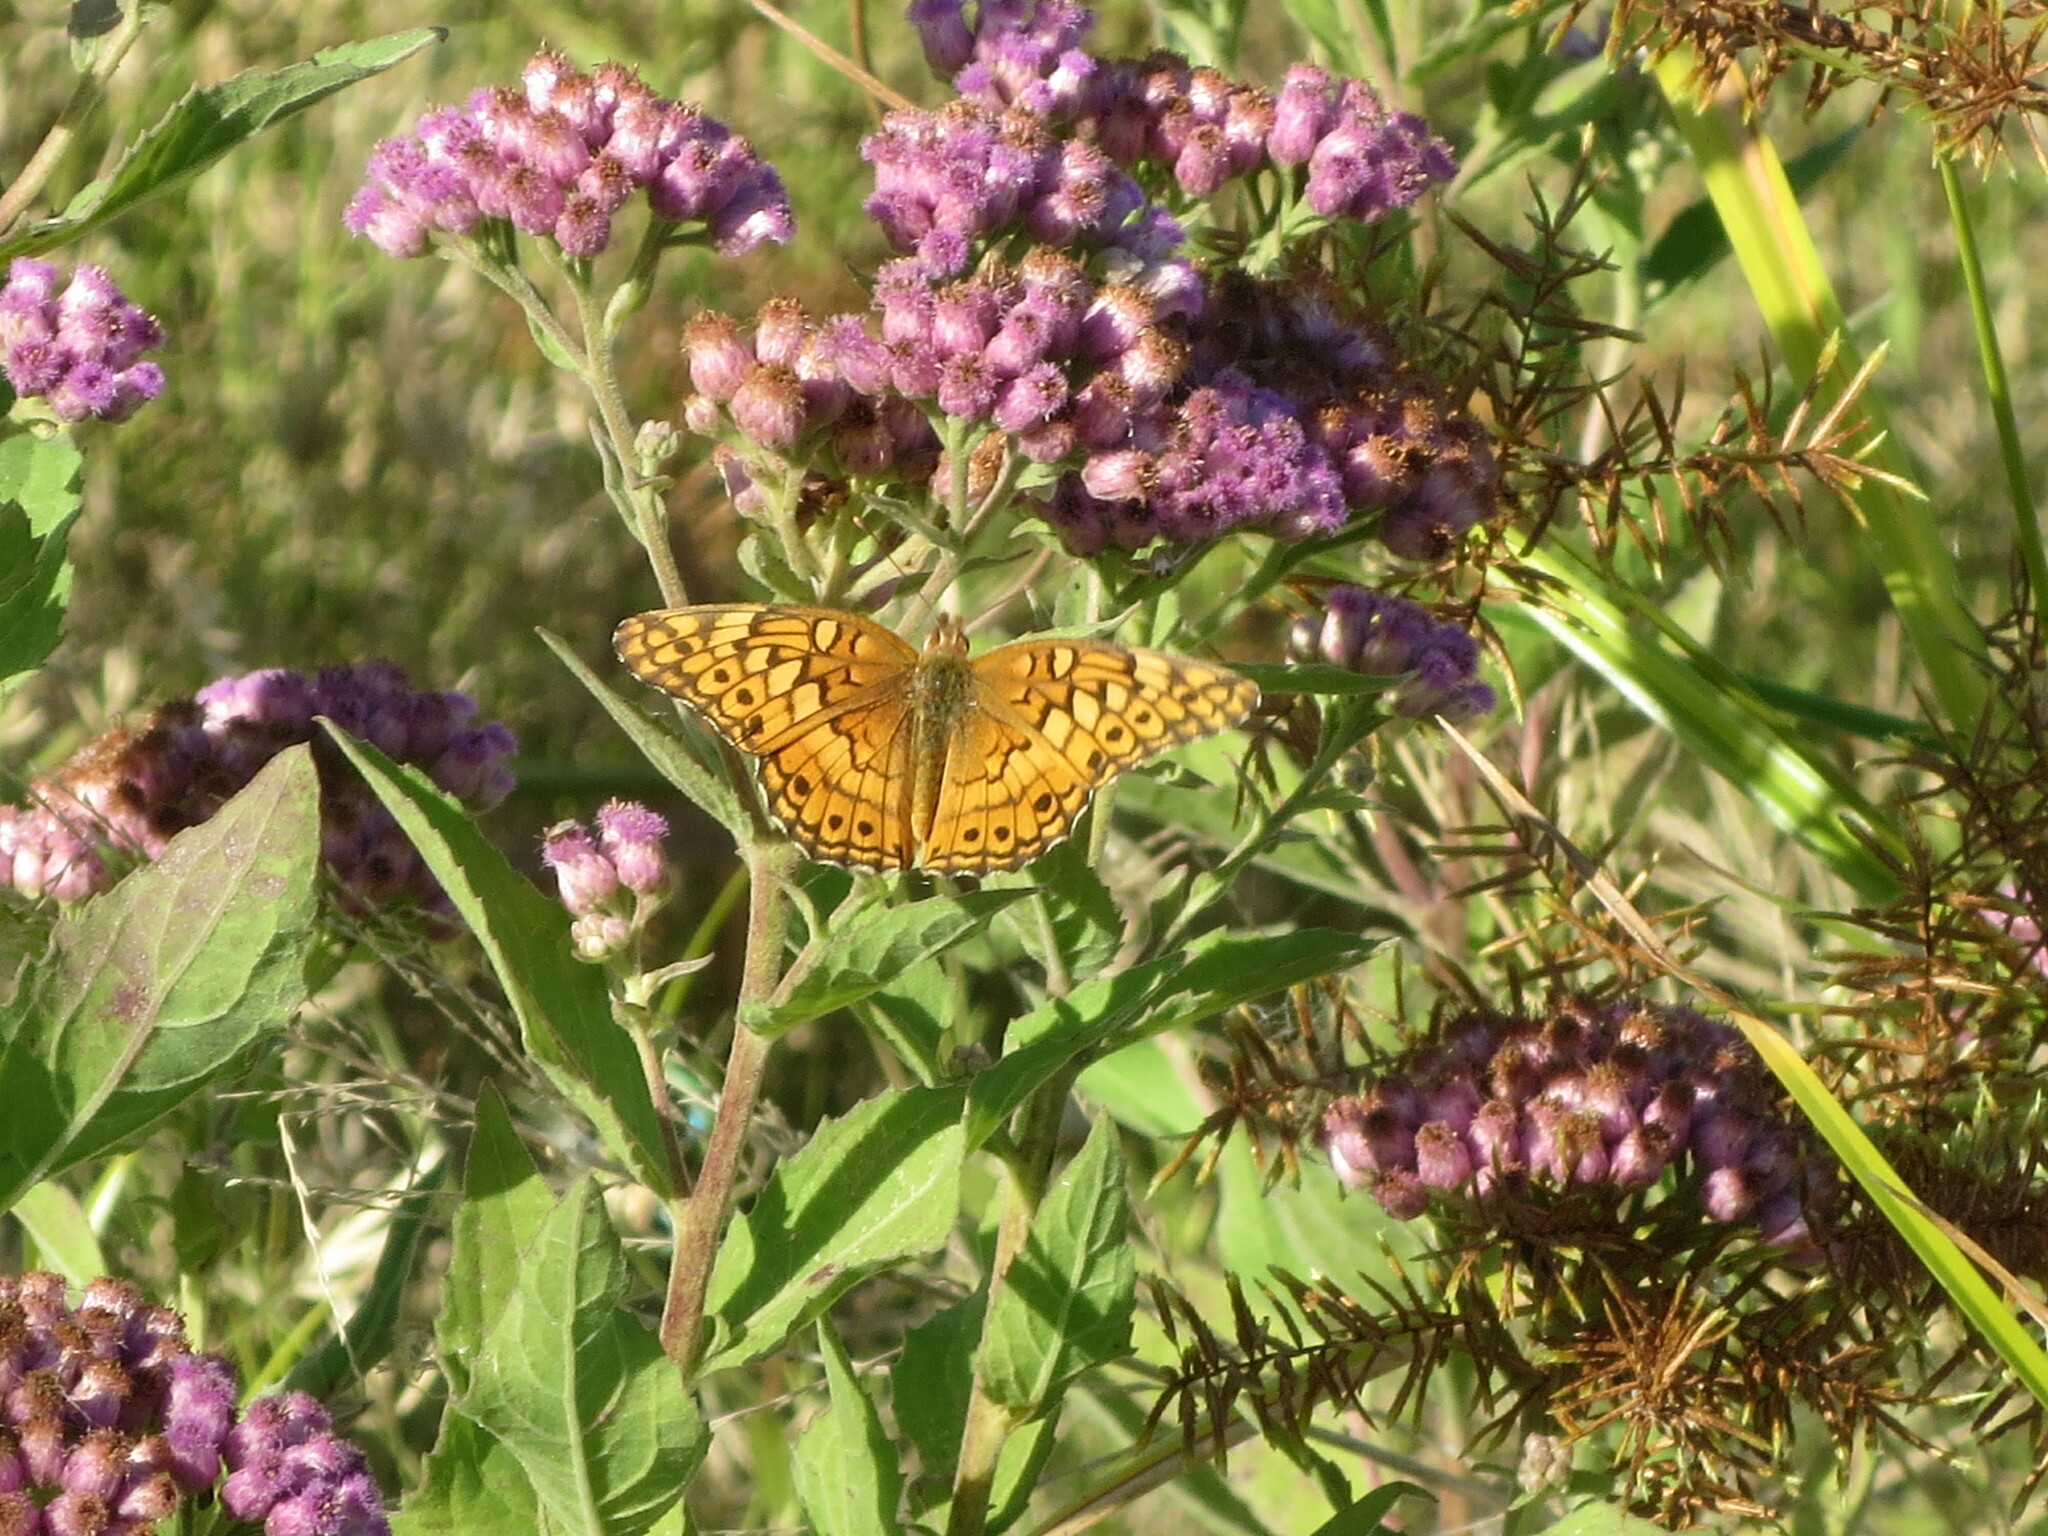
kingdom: Animalia
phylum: Arthropoda
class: Insecta
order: Lepidoptera
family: Nymphalidae
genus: Euptoieta
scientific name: Euptoieta claudia
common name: Variegated fritillary
